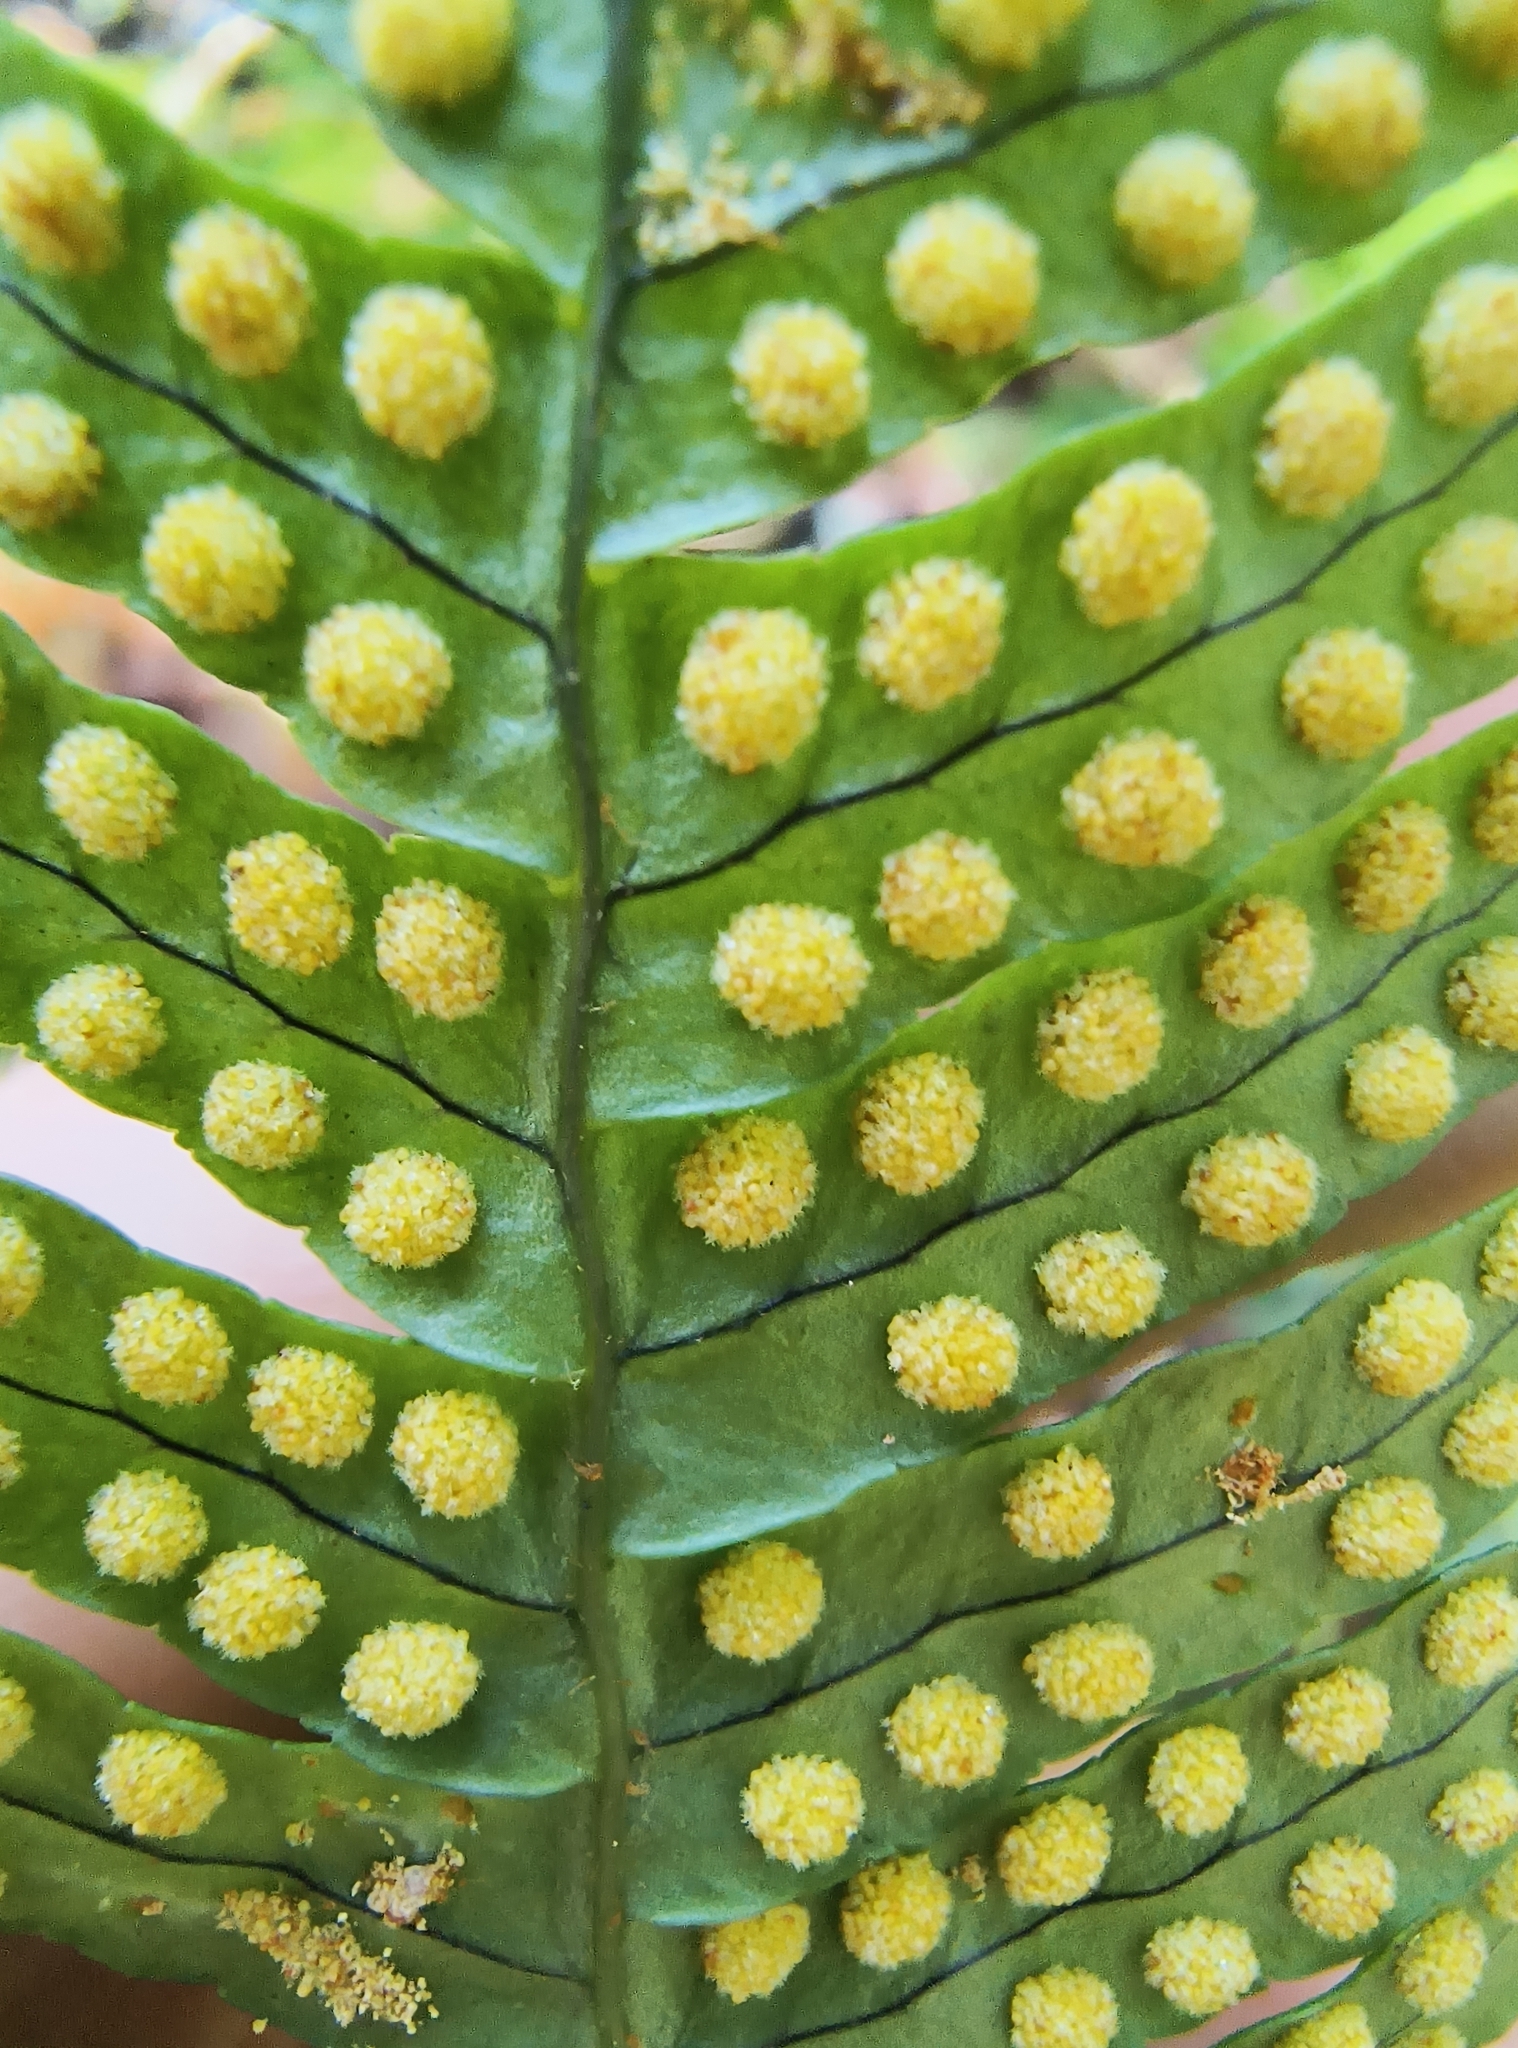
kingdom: Plantae
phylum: Tracheophyta
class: Polypodiopsida
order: Polypodiales
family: Polypodiaceae
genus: Polypodium
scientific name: Polypodium virginianum
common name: American wall fern
